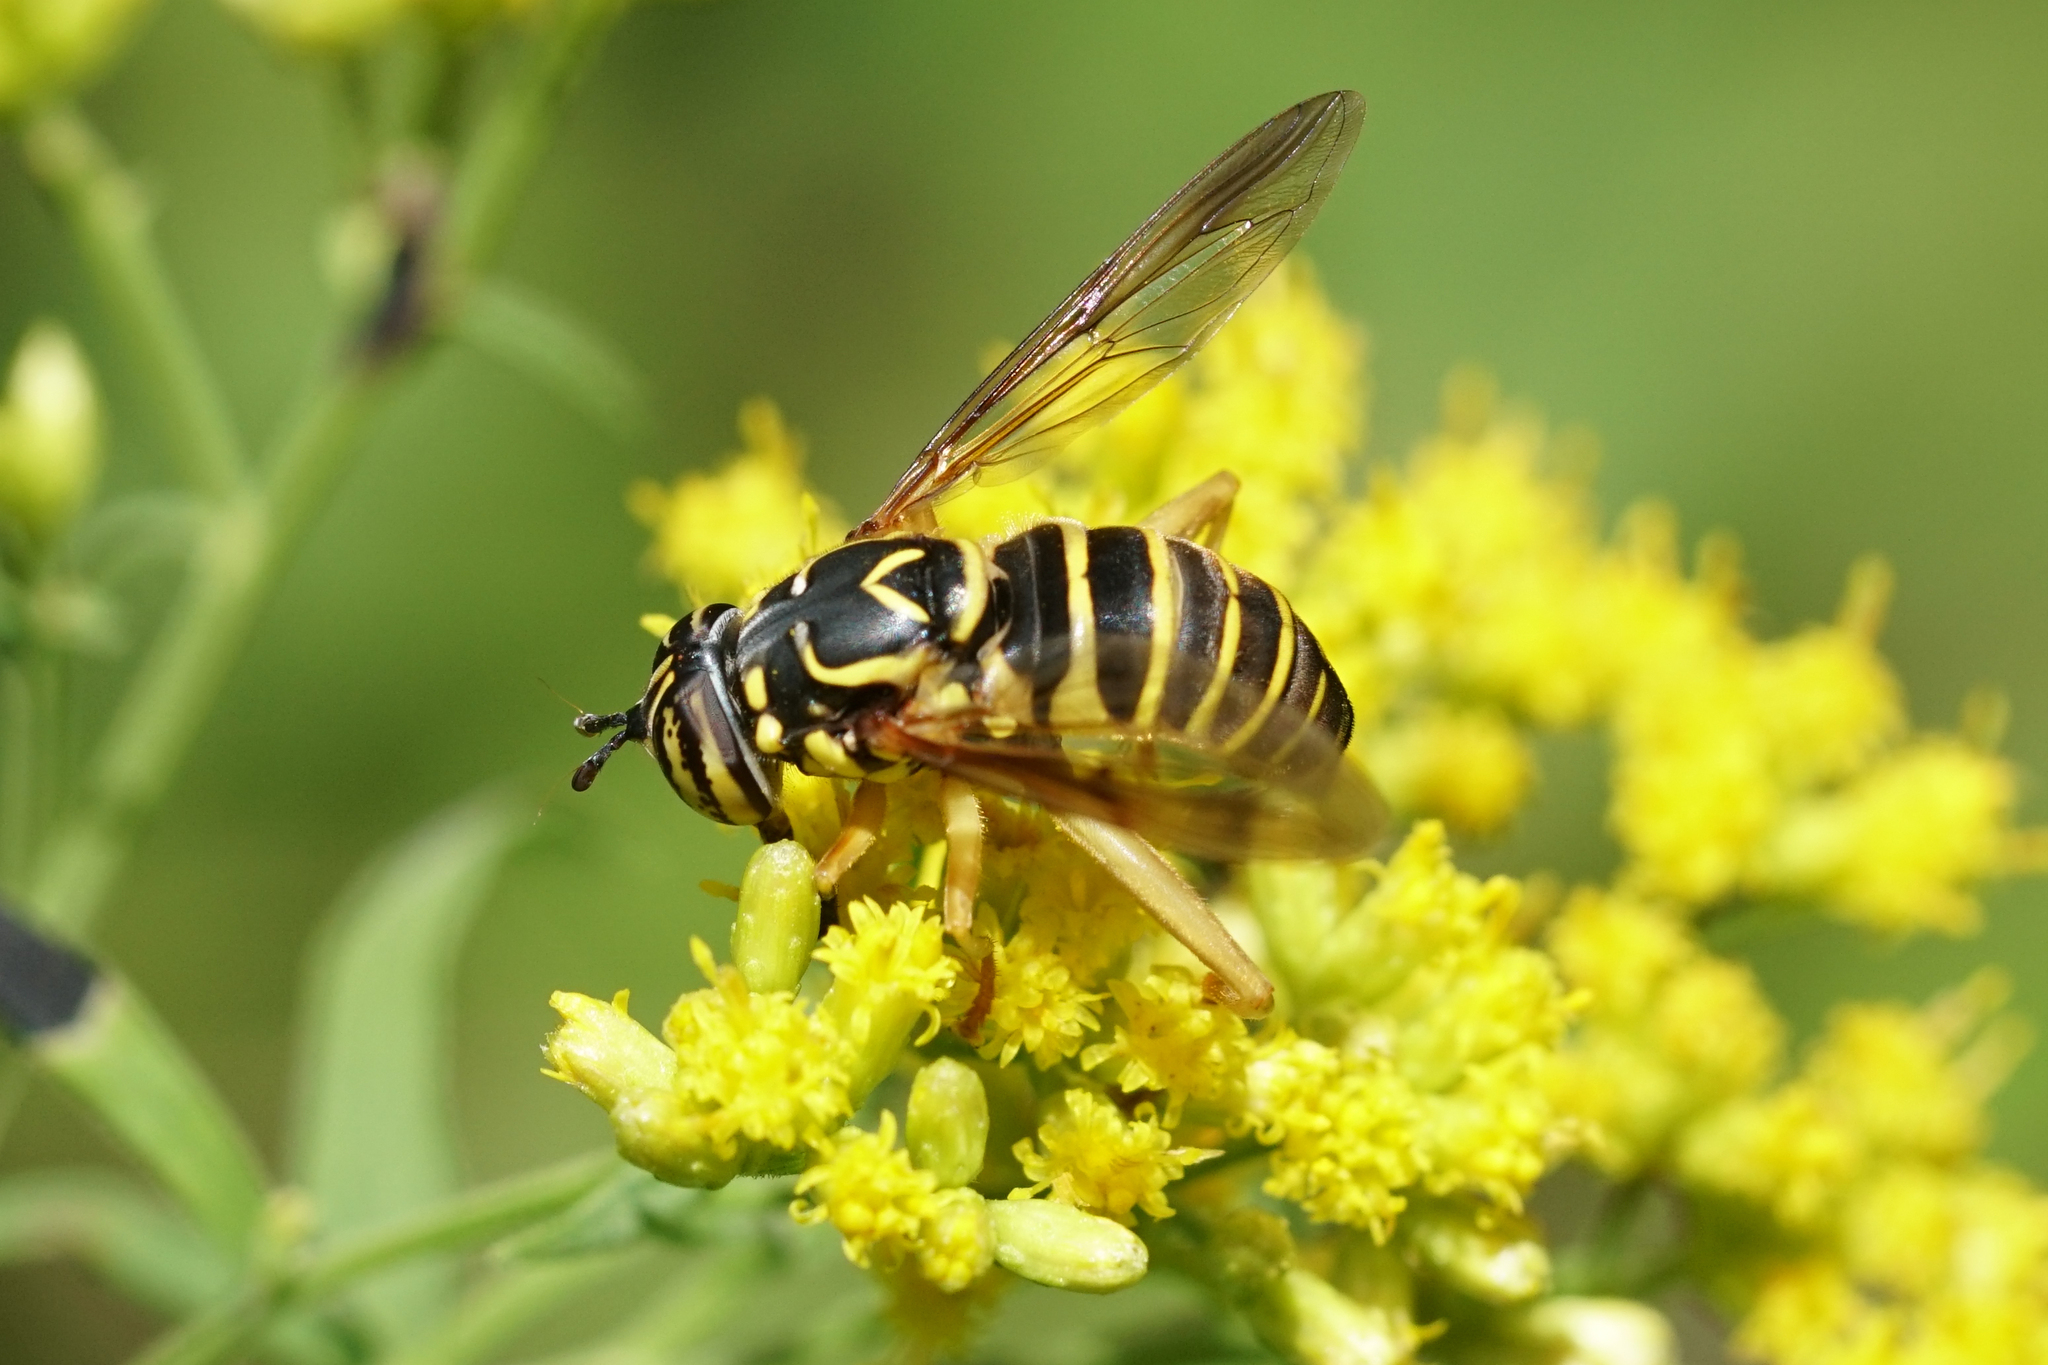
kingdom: Animalia
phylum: Arthropoda
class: Insecta
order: Diptera
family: Syrphidae
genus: Spilomyia
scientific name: Spilomyia longicornis
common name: Eastern hornet fly
